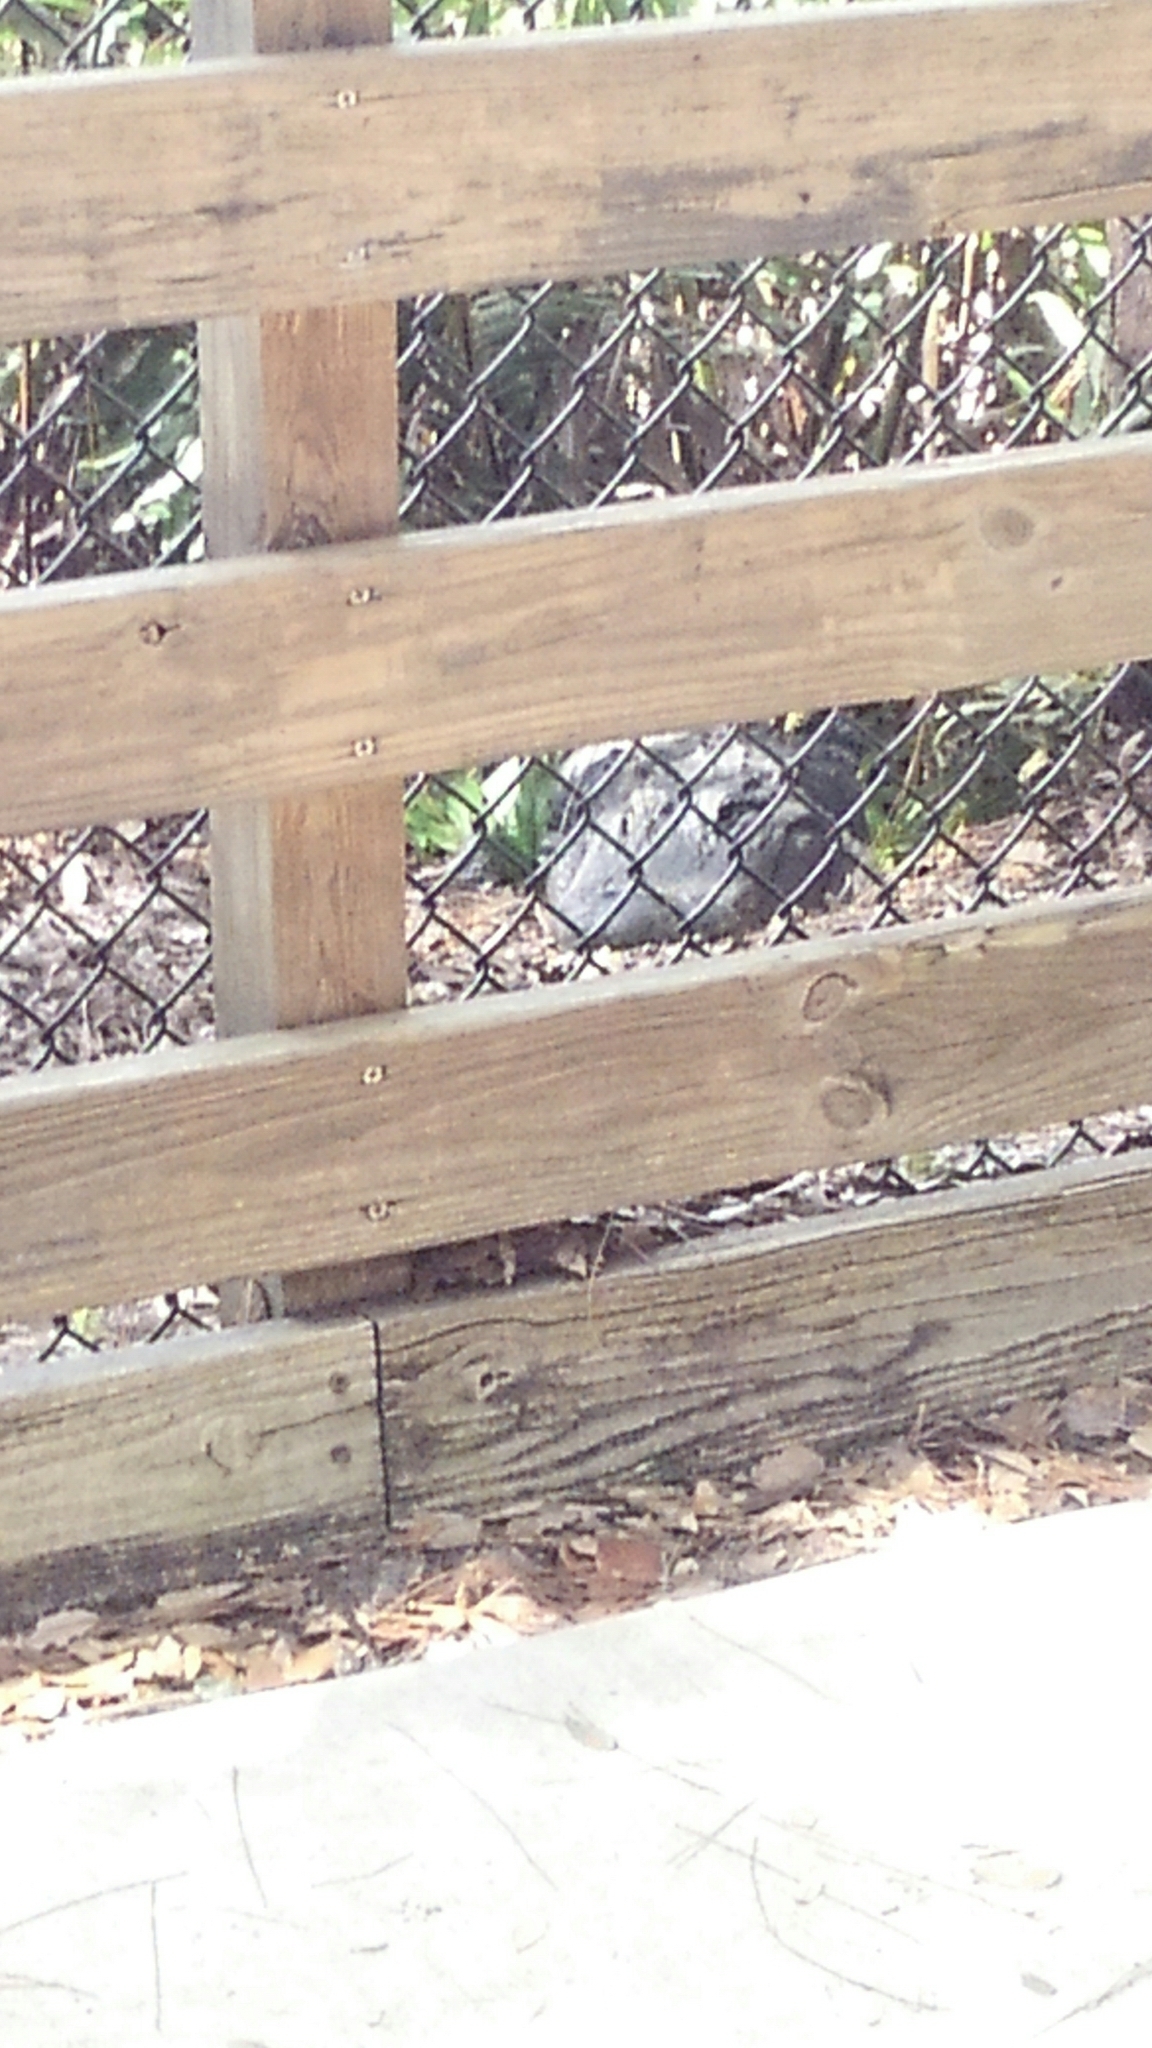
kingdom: Animalia
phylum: Chordata
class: Crocodylia
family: Alligatoridae
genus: Alligator
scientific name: Alligator mississippiensis
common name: American alligator
